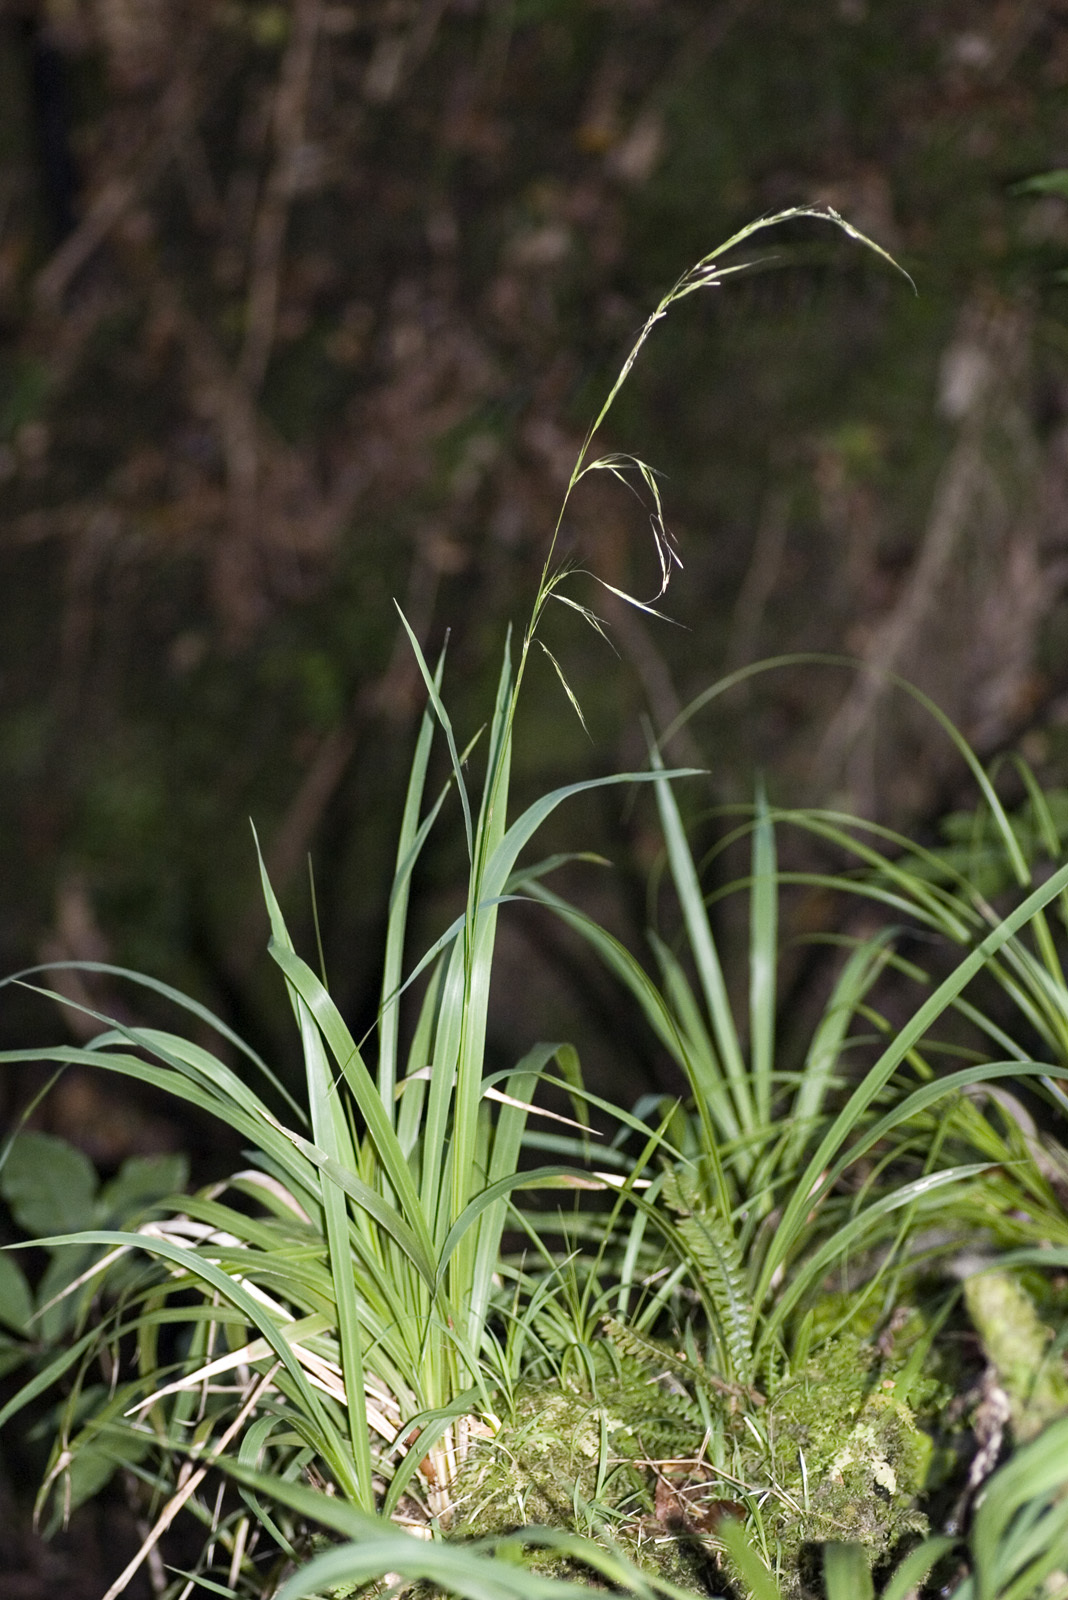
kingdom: Plantae
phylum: Tracheophyta
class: Liliopsida
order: Poales
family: Poaceae
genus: Ehrharta
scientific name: Ehrharta diplax
